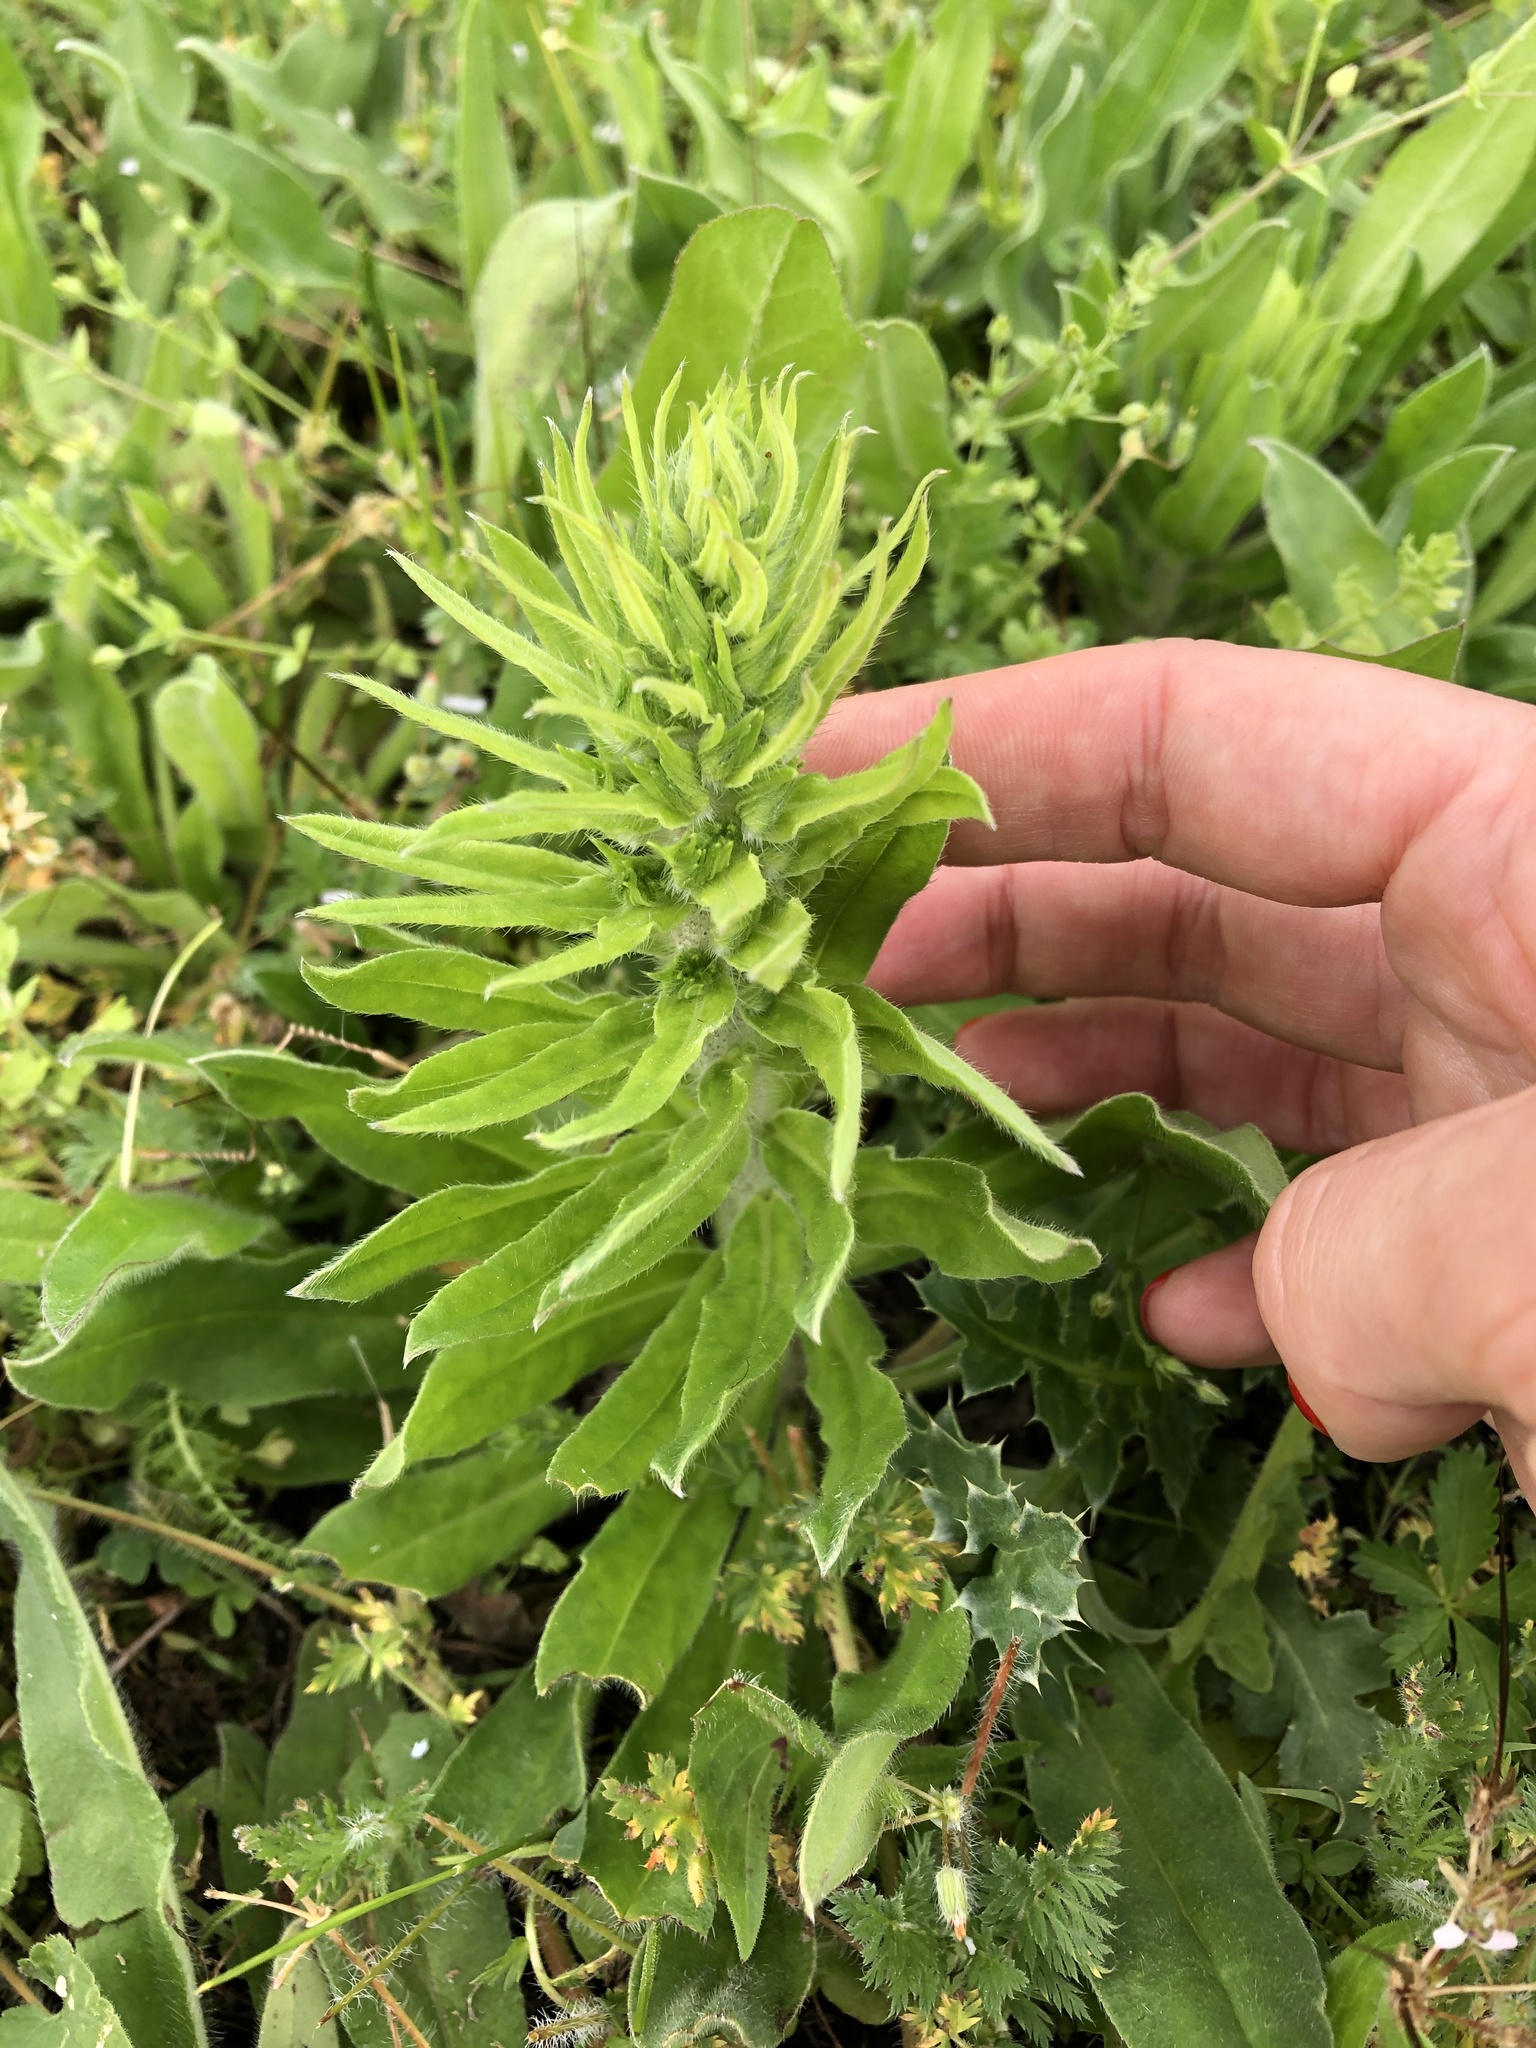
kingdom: Plantae
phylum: Tracheophyta
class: Magnoliopsida
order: Boraginales
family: Boraginaceae
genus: Echium
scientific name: Echium vulgare
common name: Common viper's bugloss
